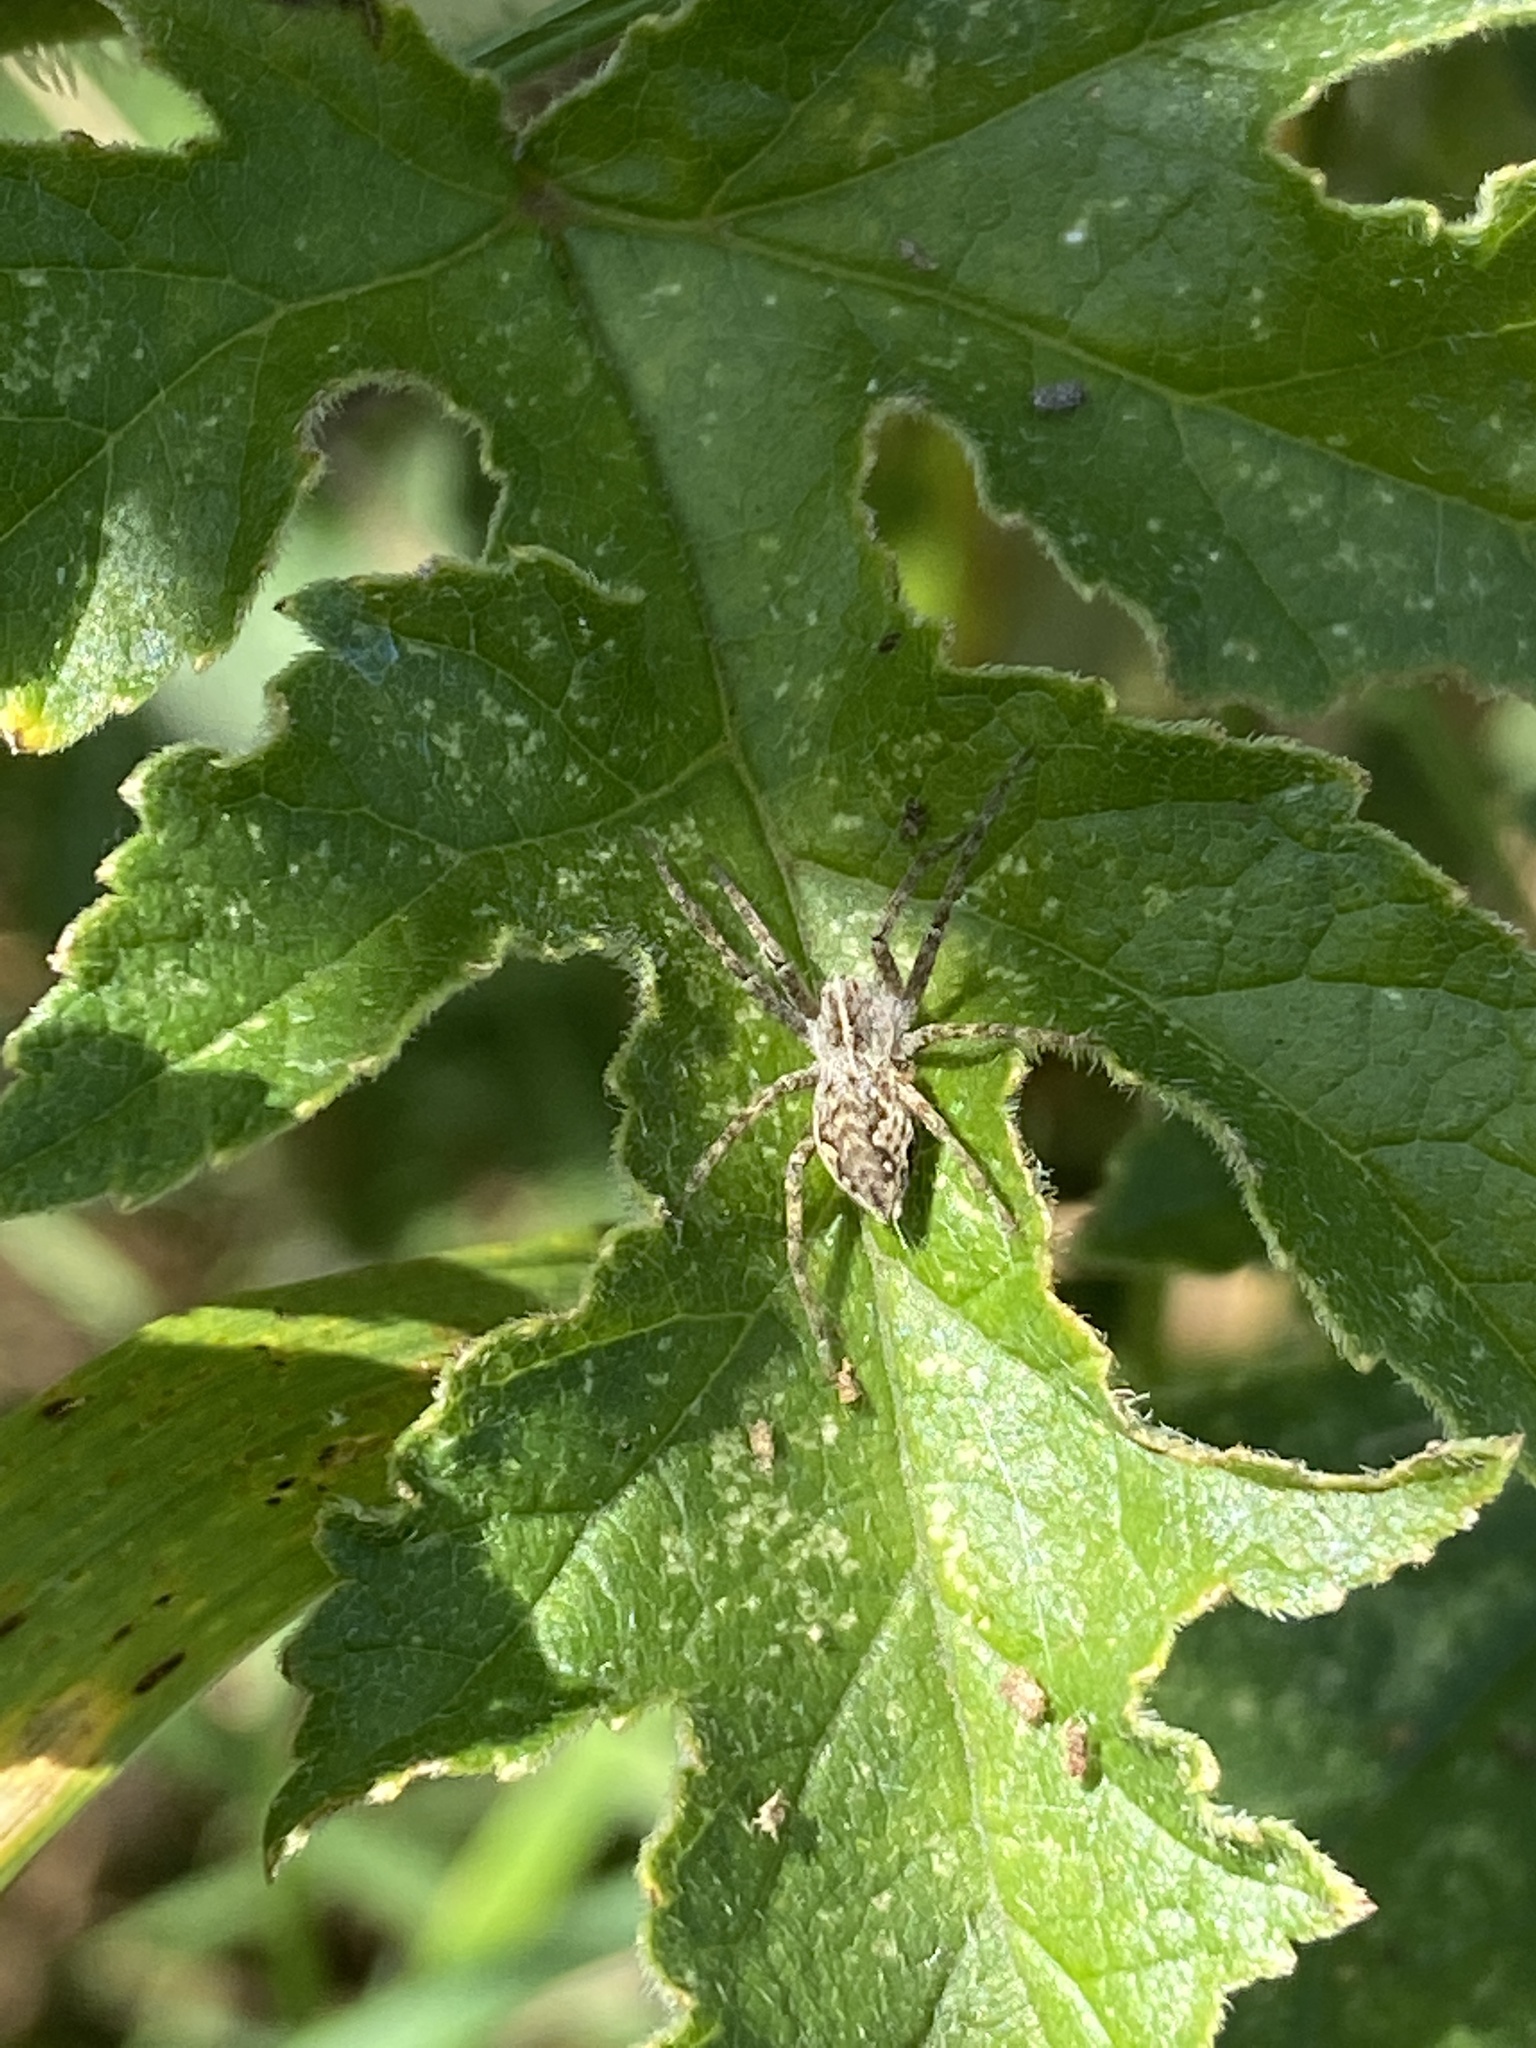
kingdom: Animalia
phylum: Arthropoda
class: Arachnida
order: Araneae
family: Pisauridae
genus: Pisaura
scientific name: Pisaura mirabilis
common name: Tent spider
